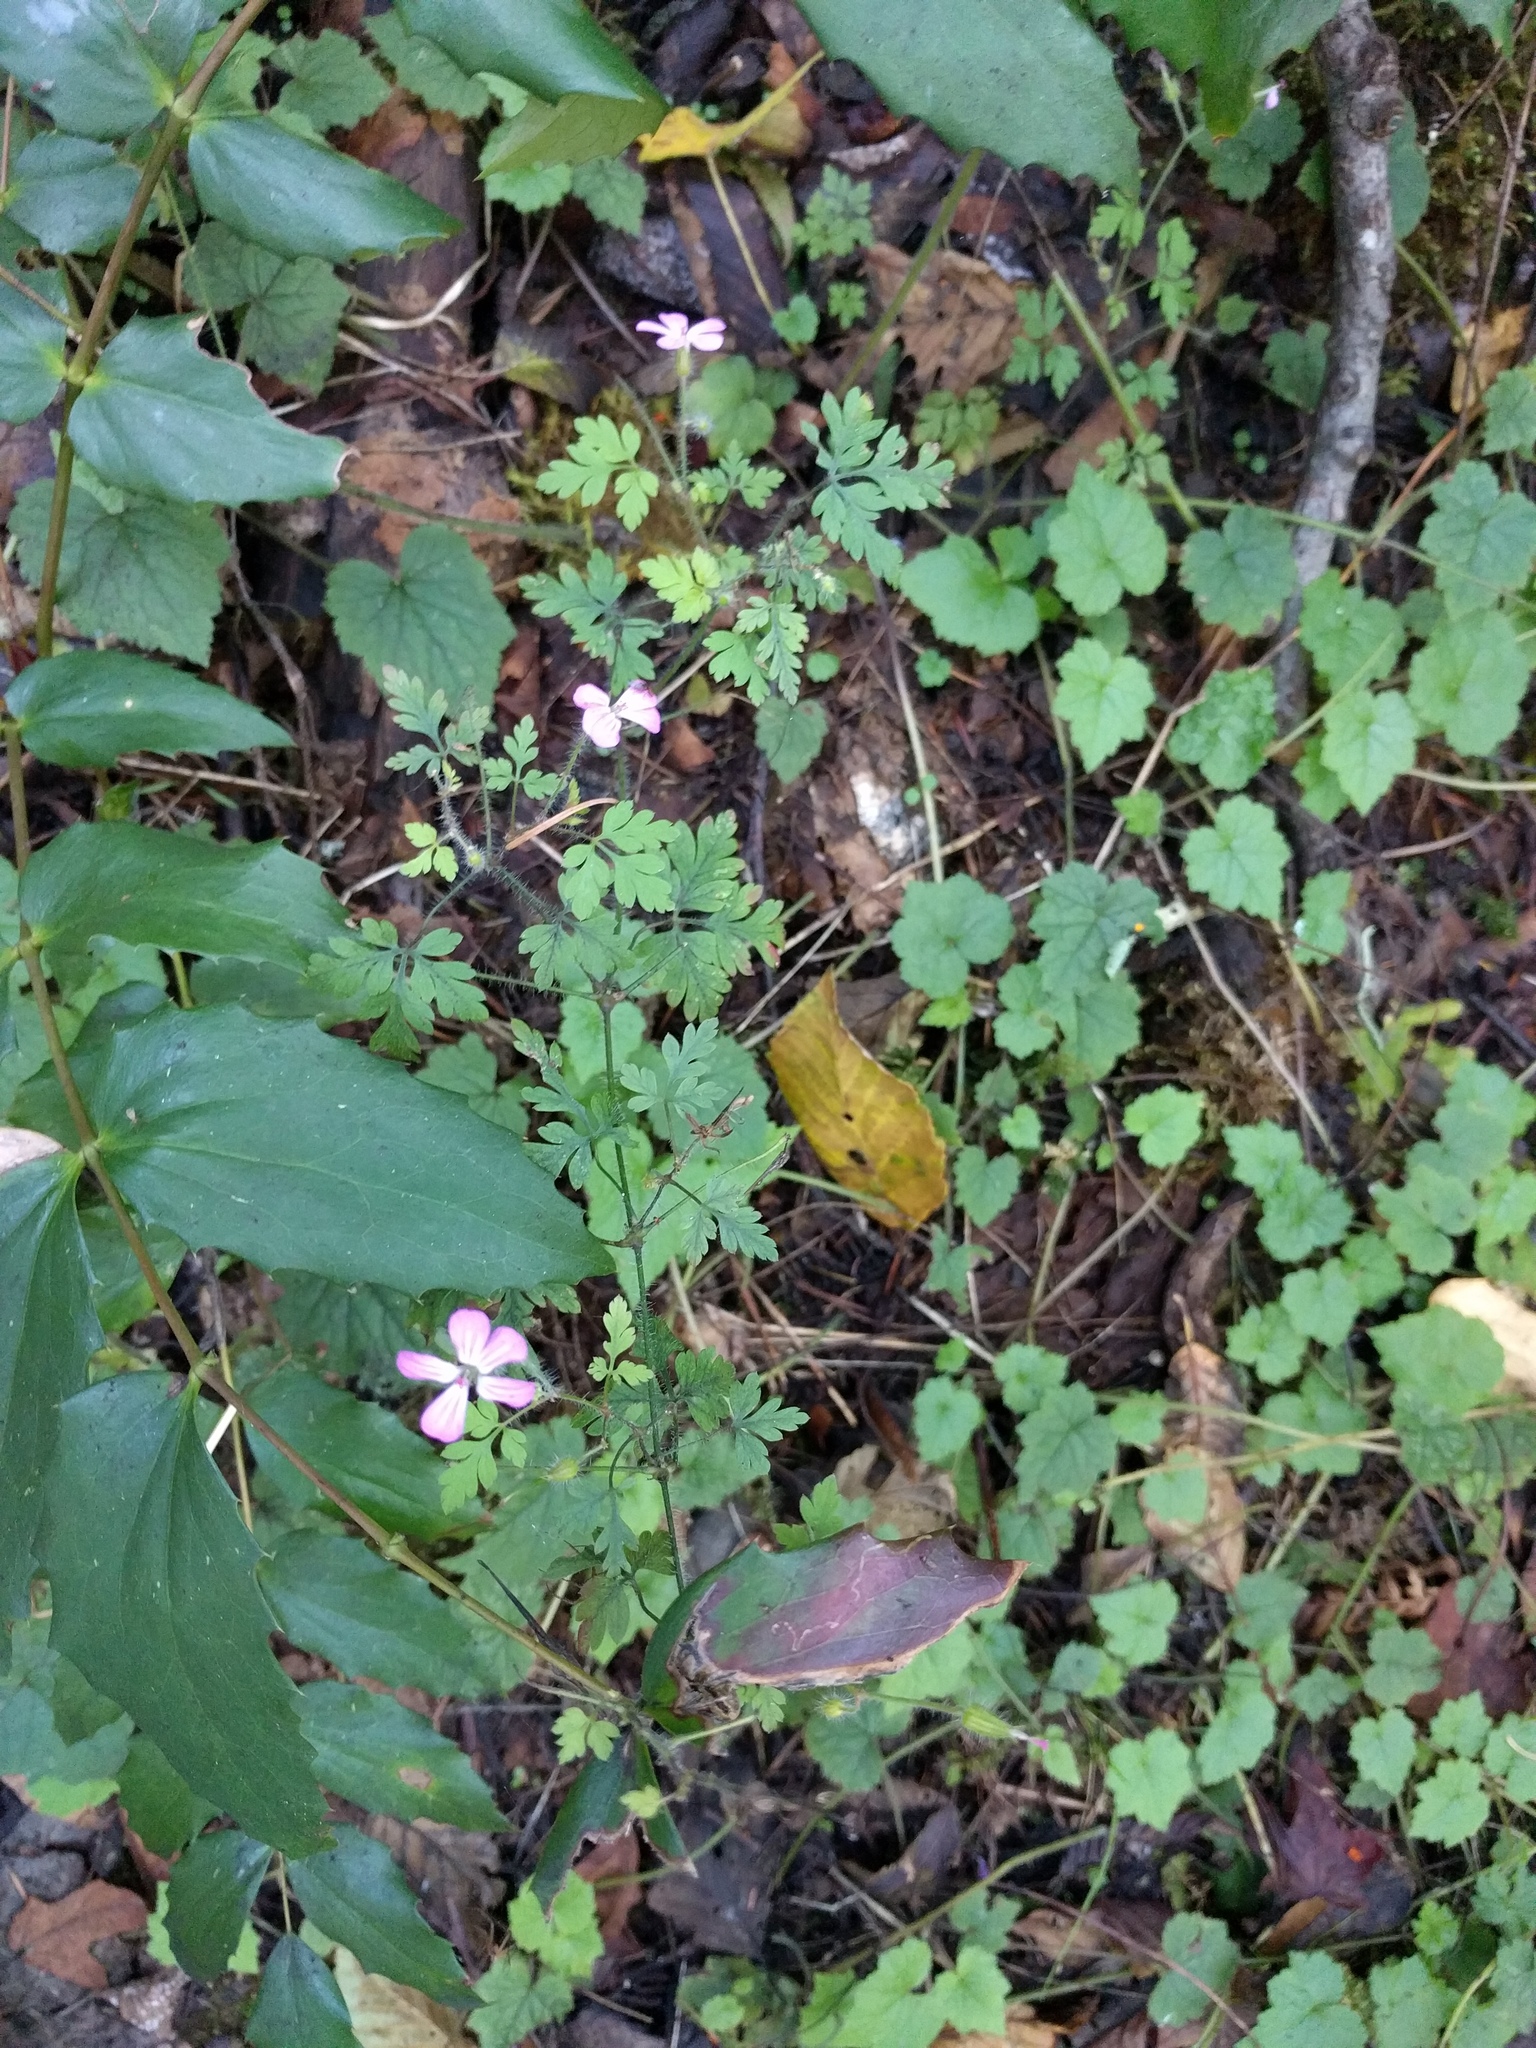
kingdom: Plantae
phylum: Tracheophyta
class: Magnoliopsida
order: Geraniales
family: Geraniaceae
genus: Geranium
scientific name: Geranium robertianum
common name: Herb-robert
